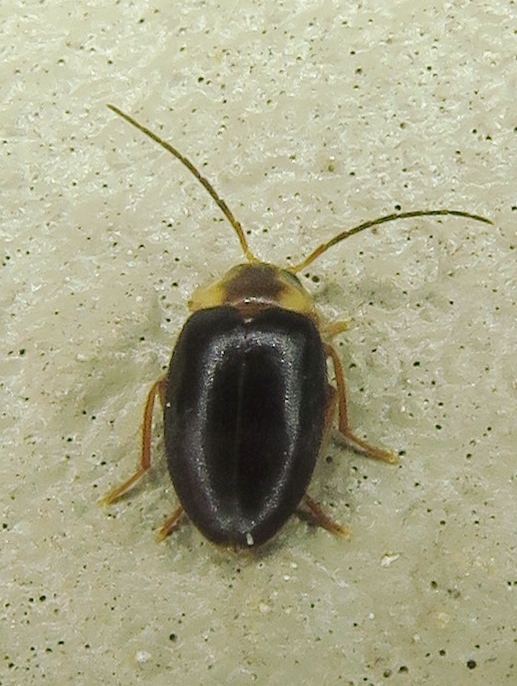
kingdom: Animalia
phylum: Arthropoda
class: Insecta
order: Coleoptera
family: Scirtidae
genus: Sacodes
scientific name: Sacodes pulchella
